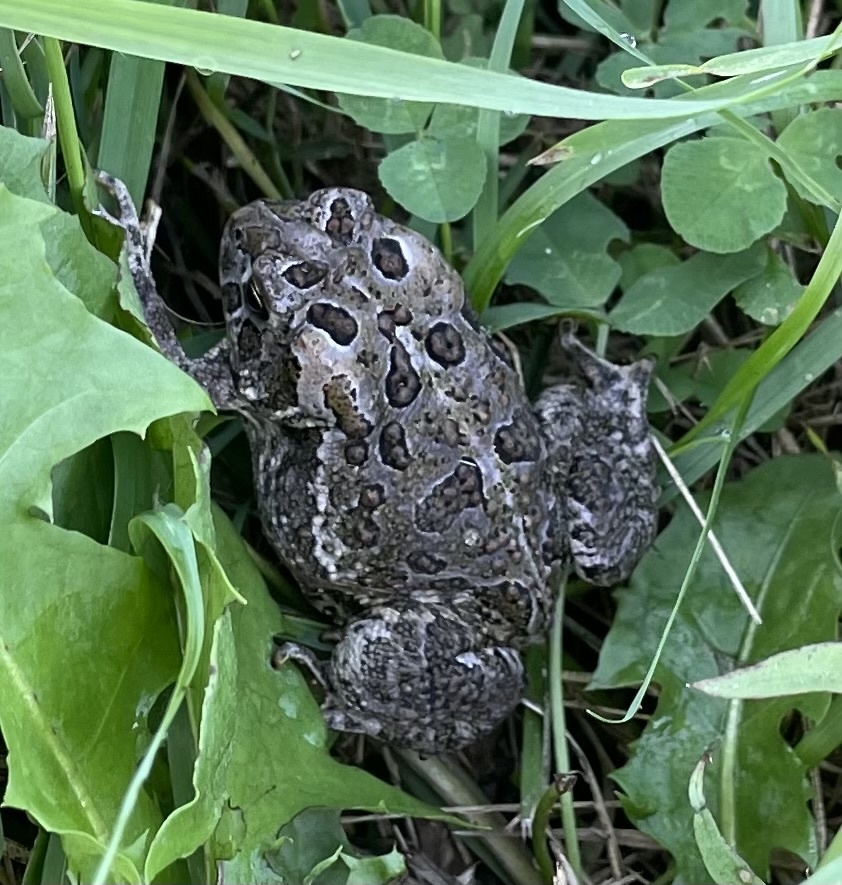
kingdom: Animalia
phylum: Chordata
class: Amphibia
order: Anura
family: Bufonidae
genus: Anaxyrus
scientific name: Anaxyrus hemiophrys
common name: Canadian toad
